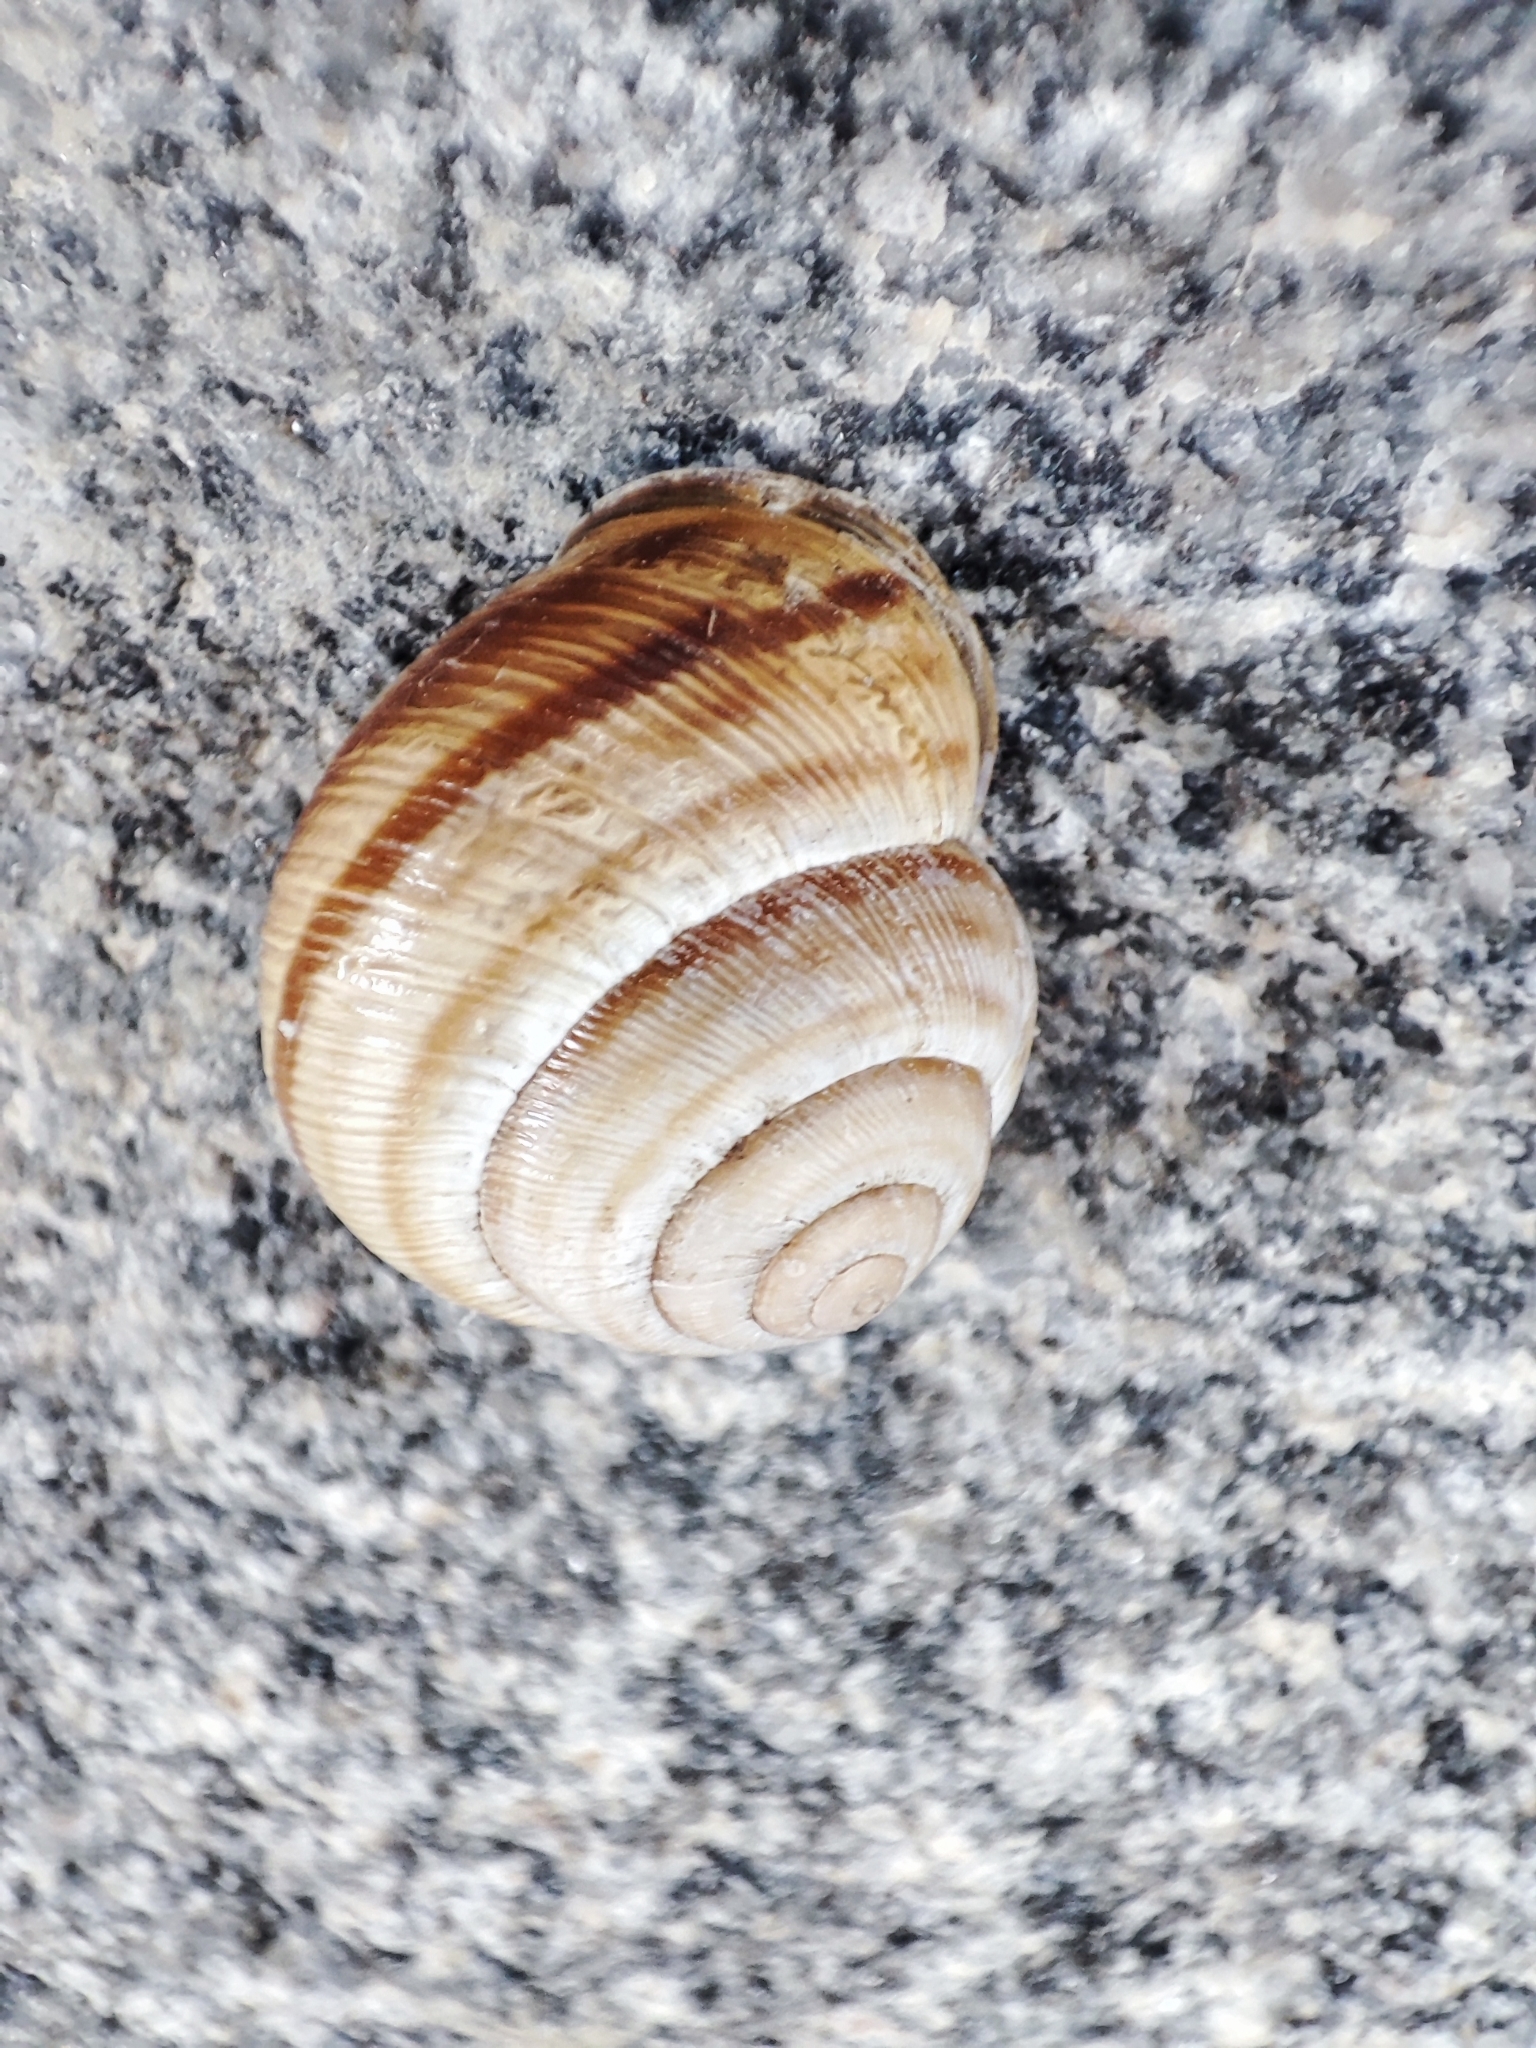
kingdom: Animalia
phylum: Mollusca
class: Gastropoda
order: Stylommatophora
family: Helicidae
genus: Caucasotachea
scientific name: Caucasotachea vindobonensis
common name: European helicid land snail
